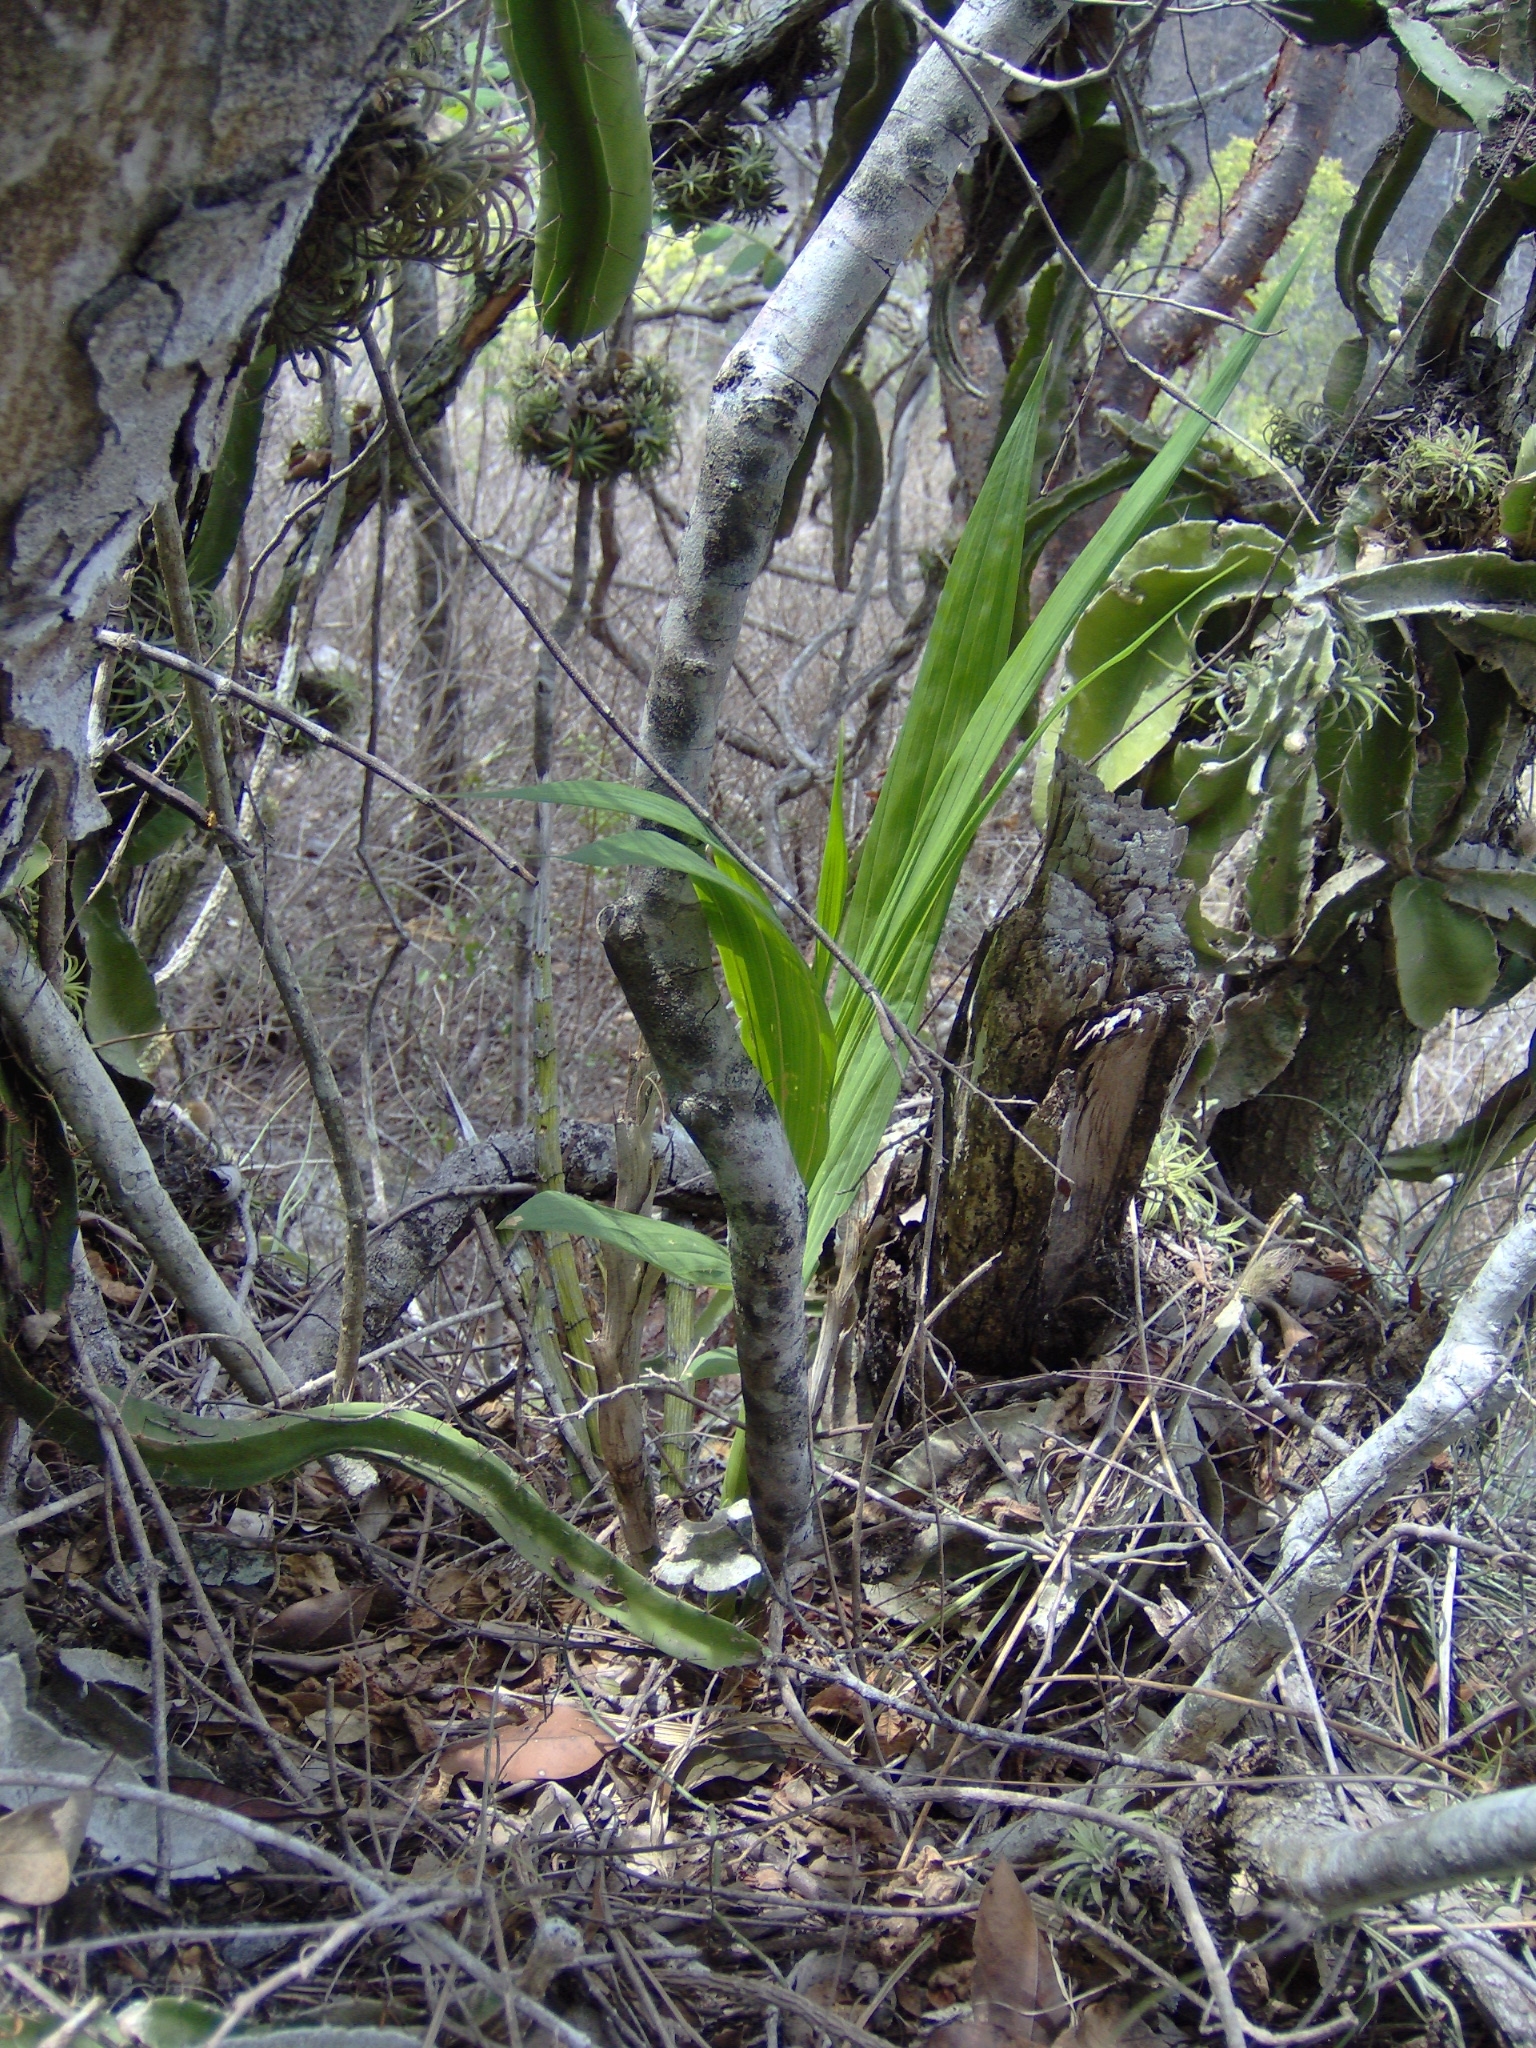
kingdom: Plantae
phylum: Tracheophyta
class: Liliopsida
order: Asparagales
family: Orchidaceae
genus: Cyrtopodium
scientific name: Cyrtopodium macrobulbon
